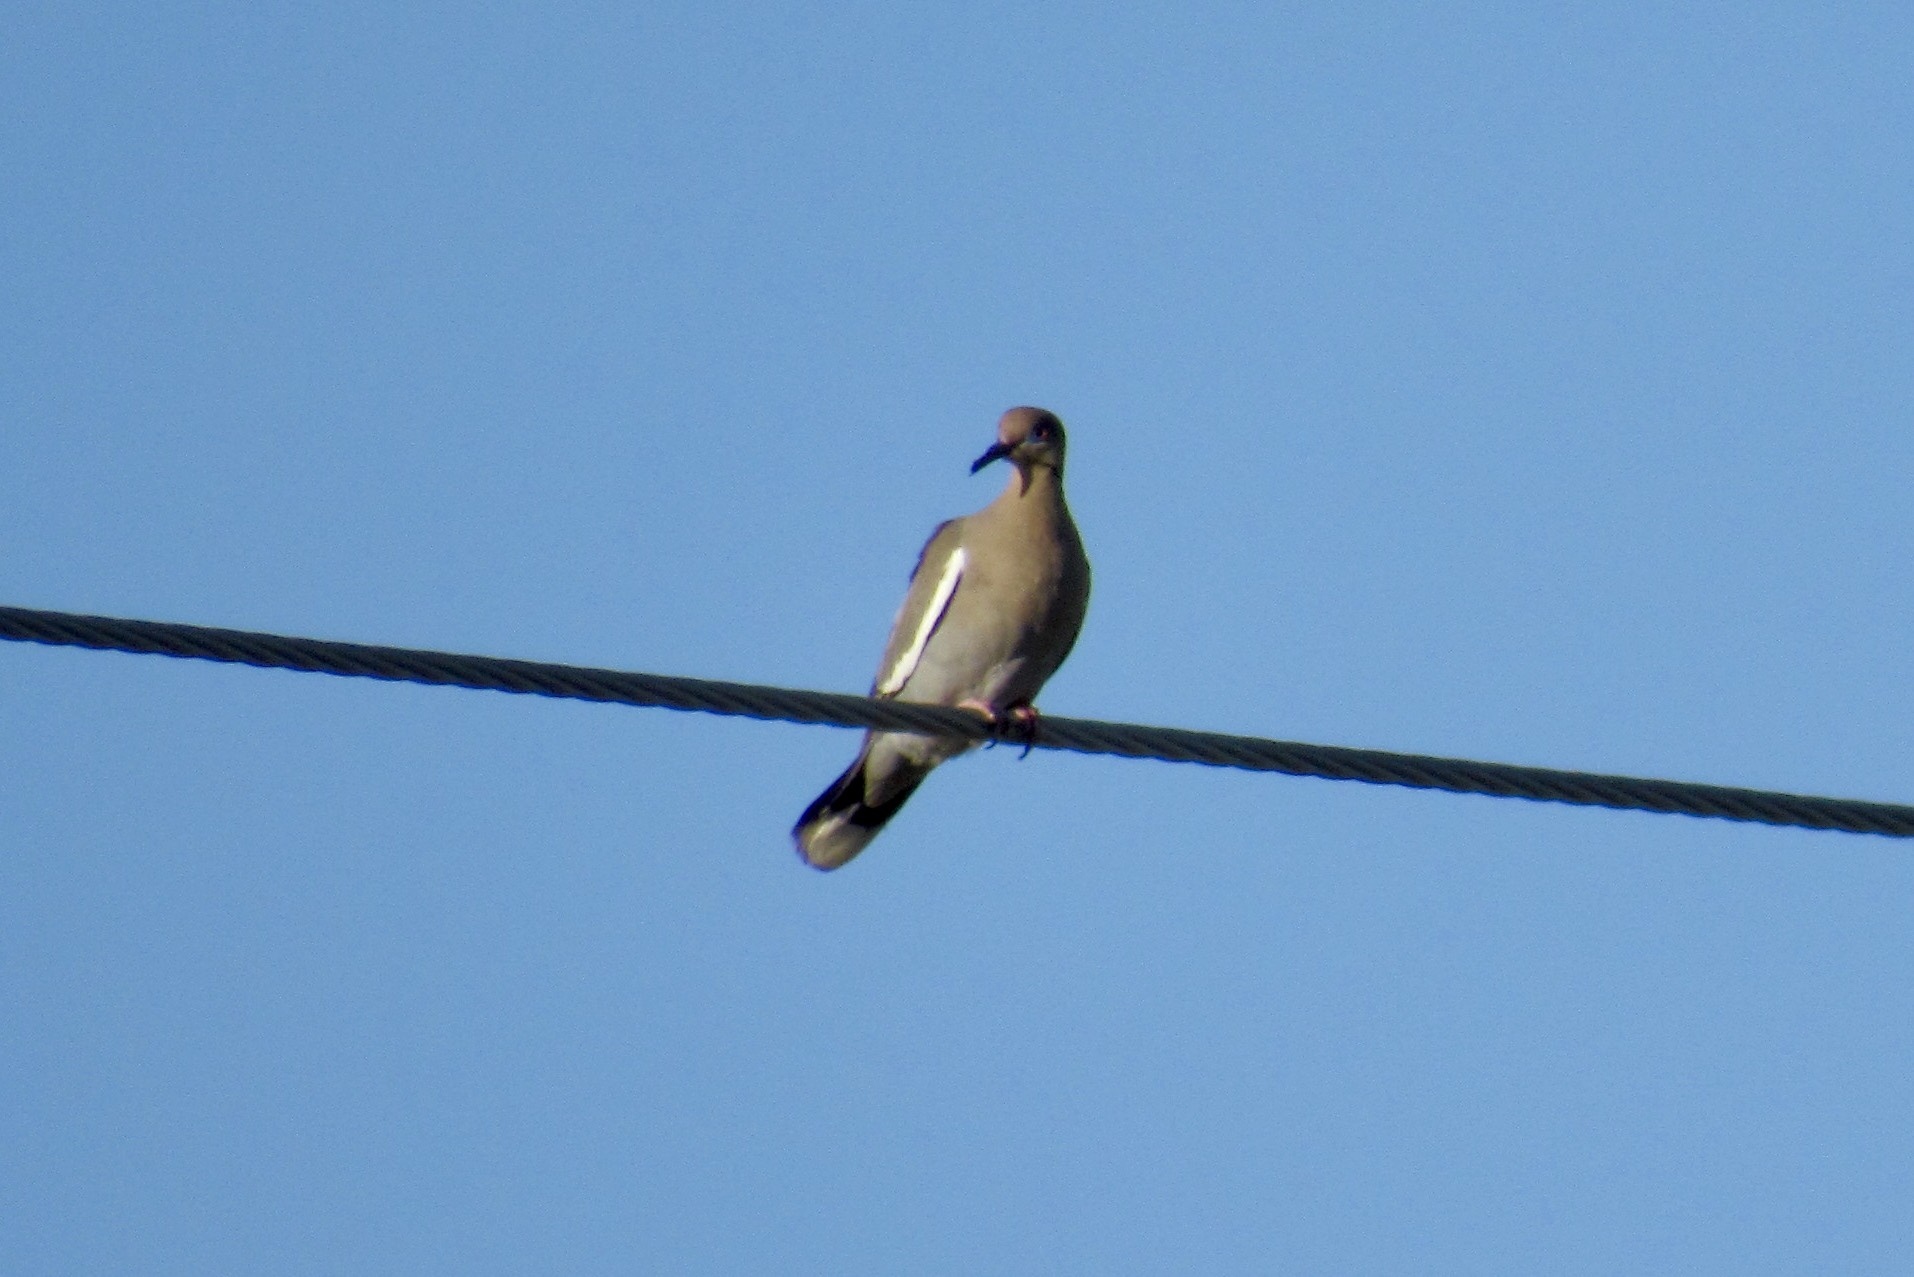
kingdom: Animalia
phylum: Chordata
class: Aves
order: Columbiformes
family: Columbidae
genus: Zenaida
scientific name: Zenaida asiatica
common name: White-winged dove
